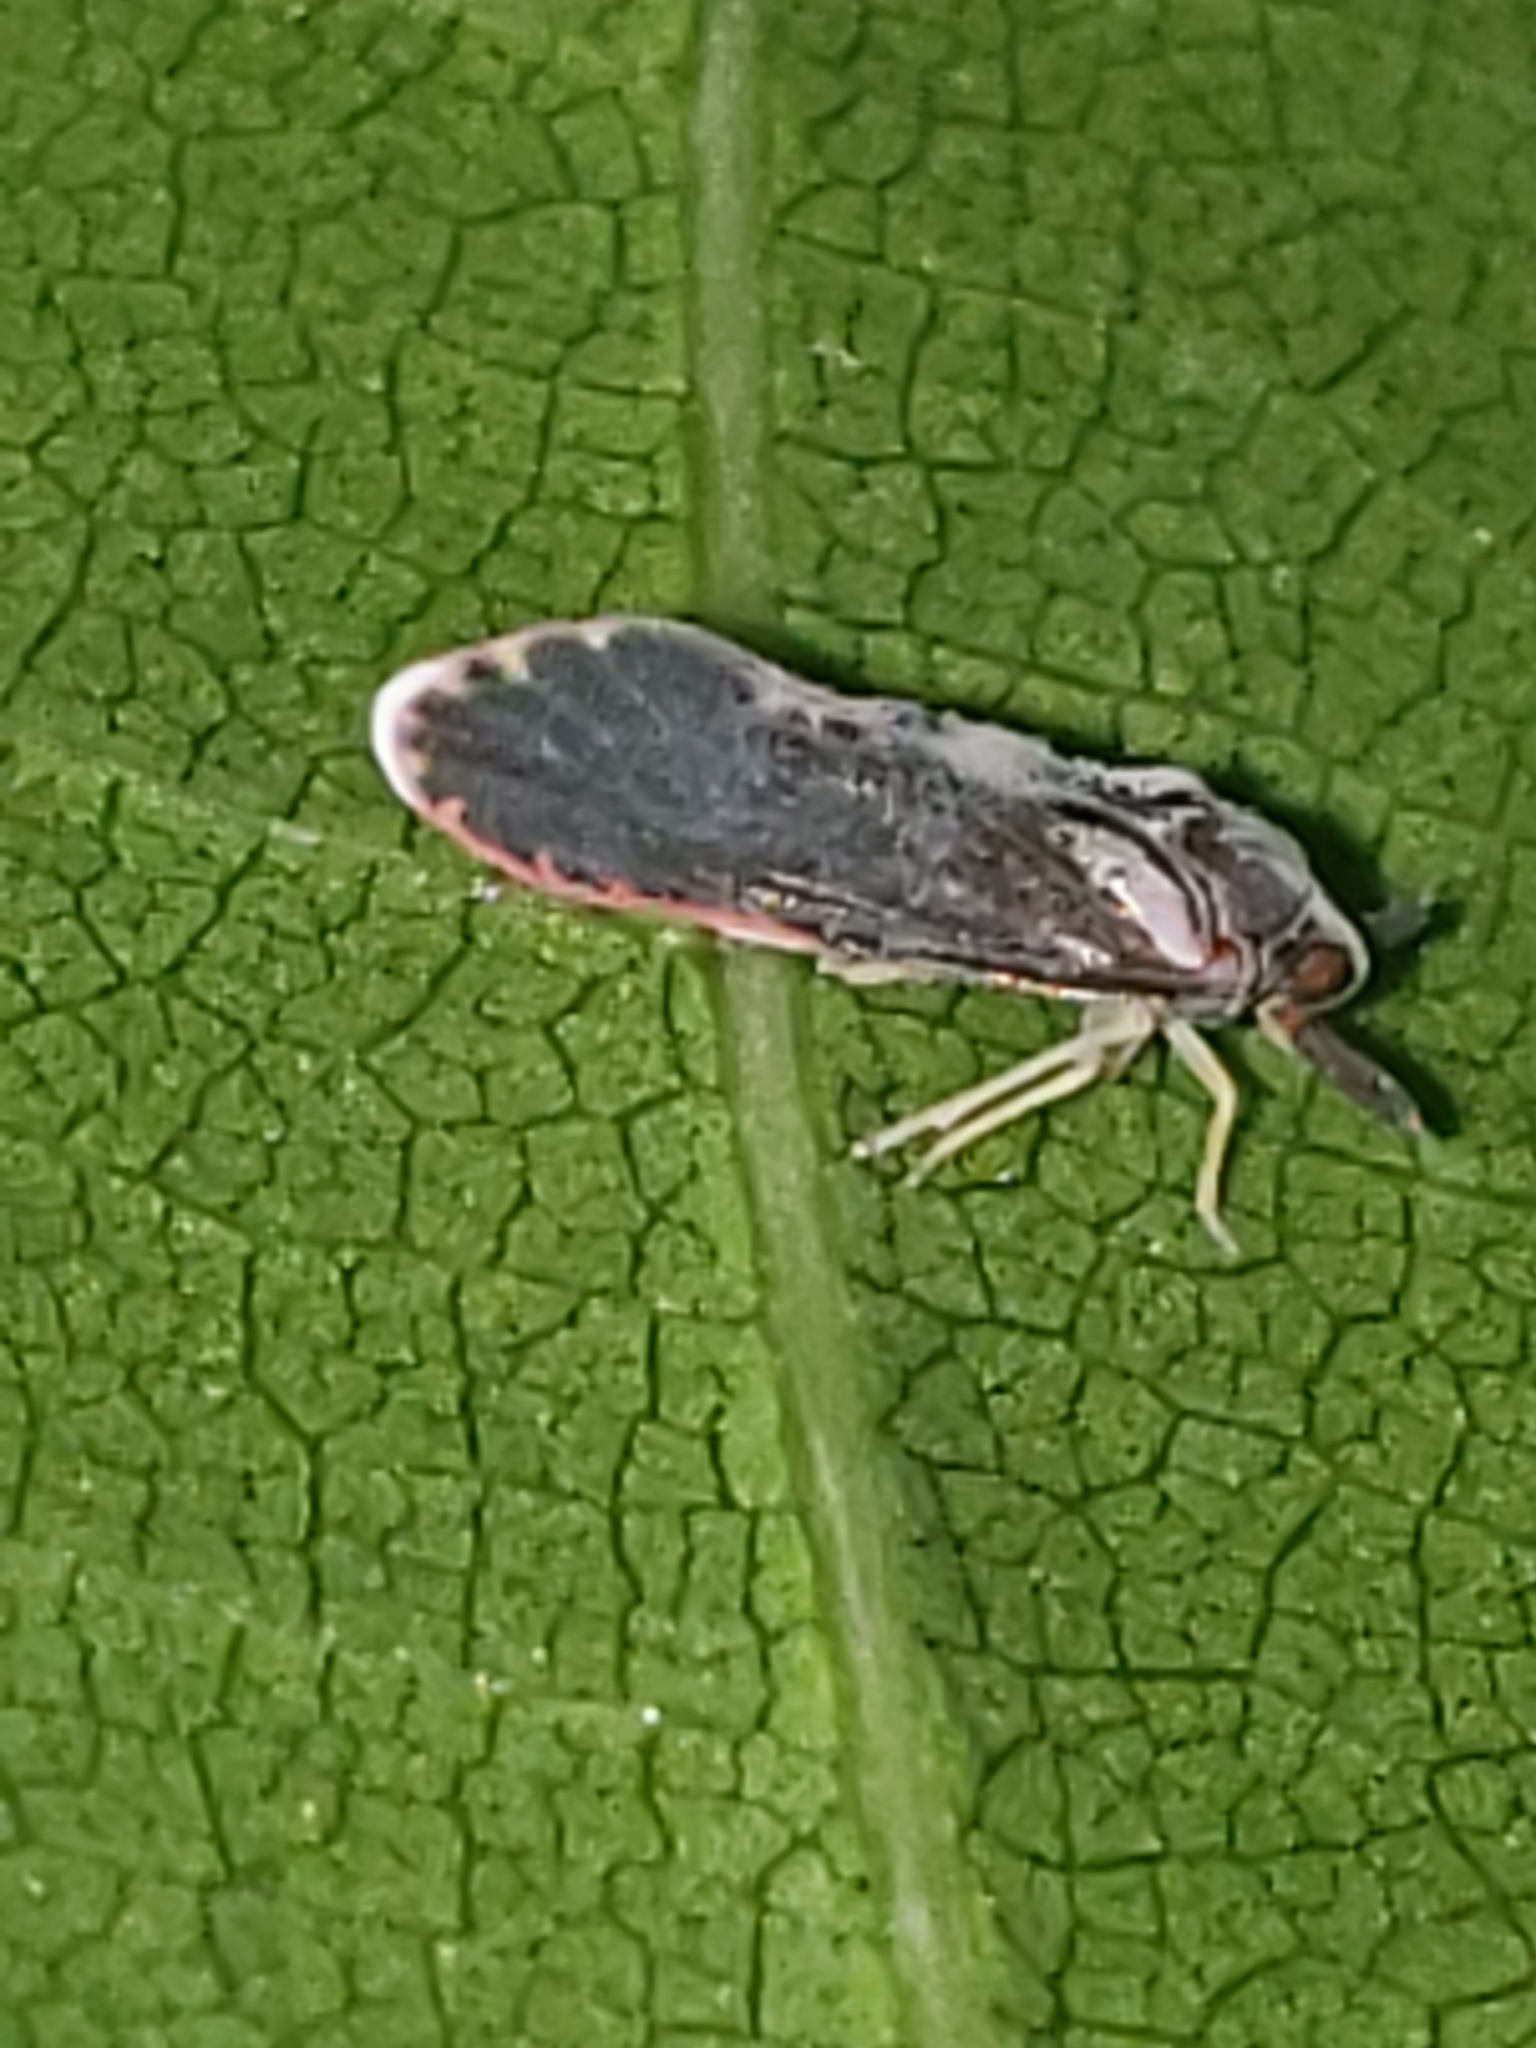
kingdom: Animalia
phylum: Arthropoda
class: Insecta
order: Hemiptera
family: Derbidae
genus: Patara
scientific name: Patara vanduzei
